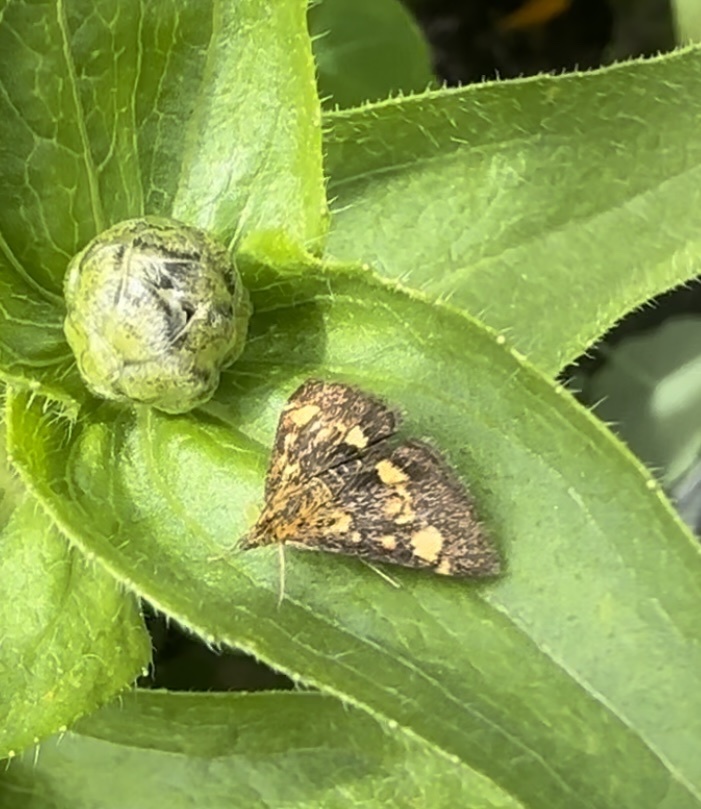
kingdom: Animalia
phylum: Arthropoda
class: Insecta
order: Lepidoptera
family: Crambidae
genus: Pyrausta
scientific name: Pyrausta aurata
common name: Small purple & gold
